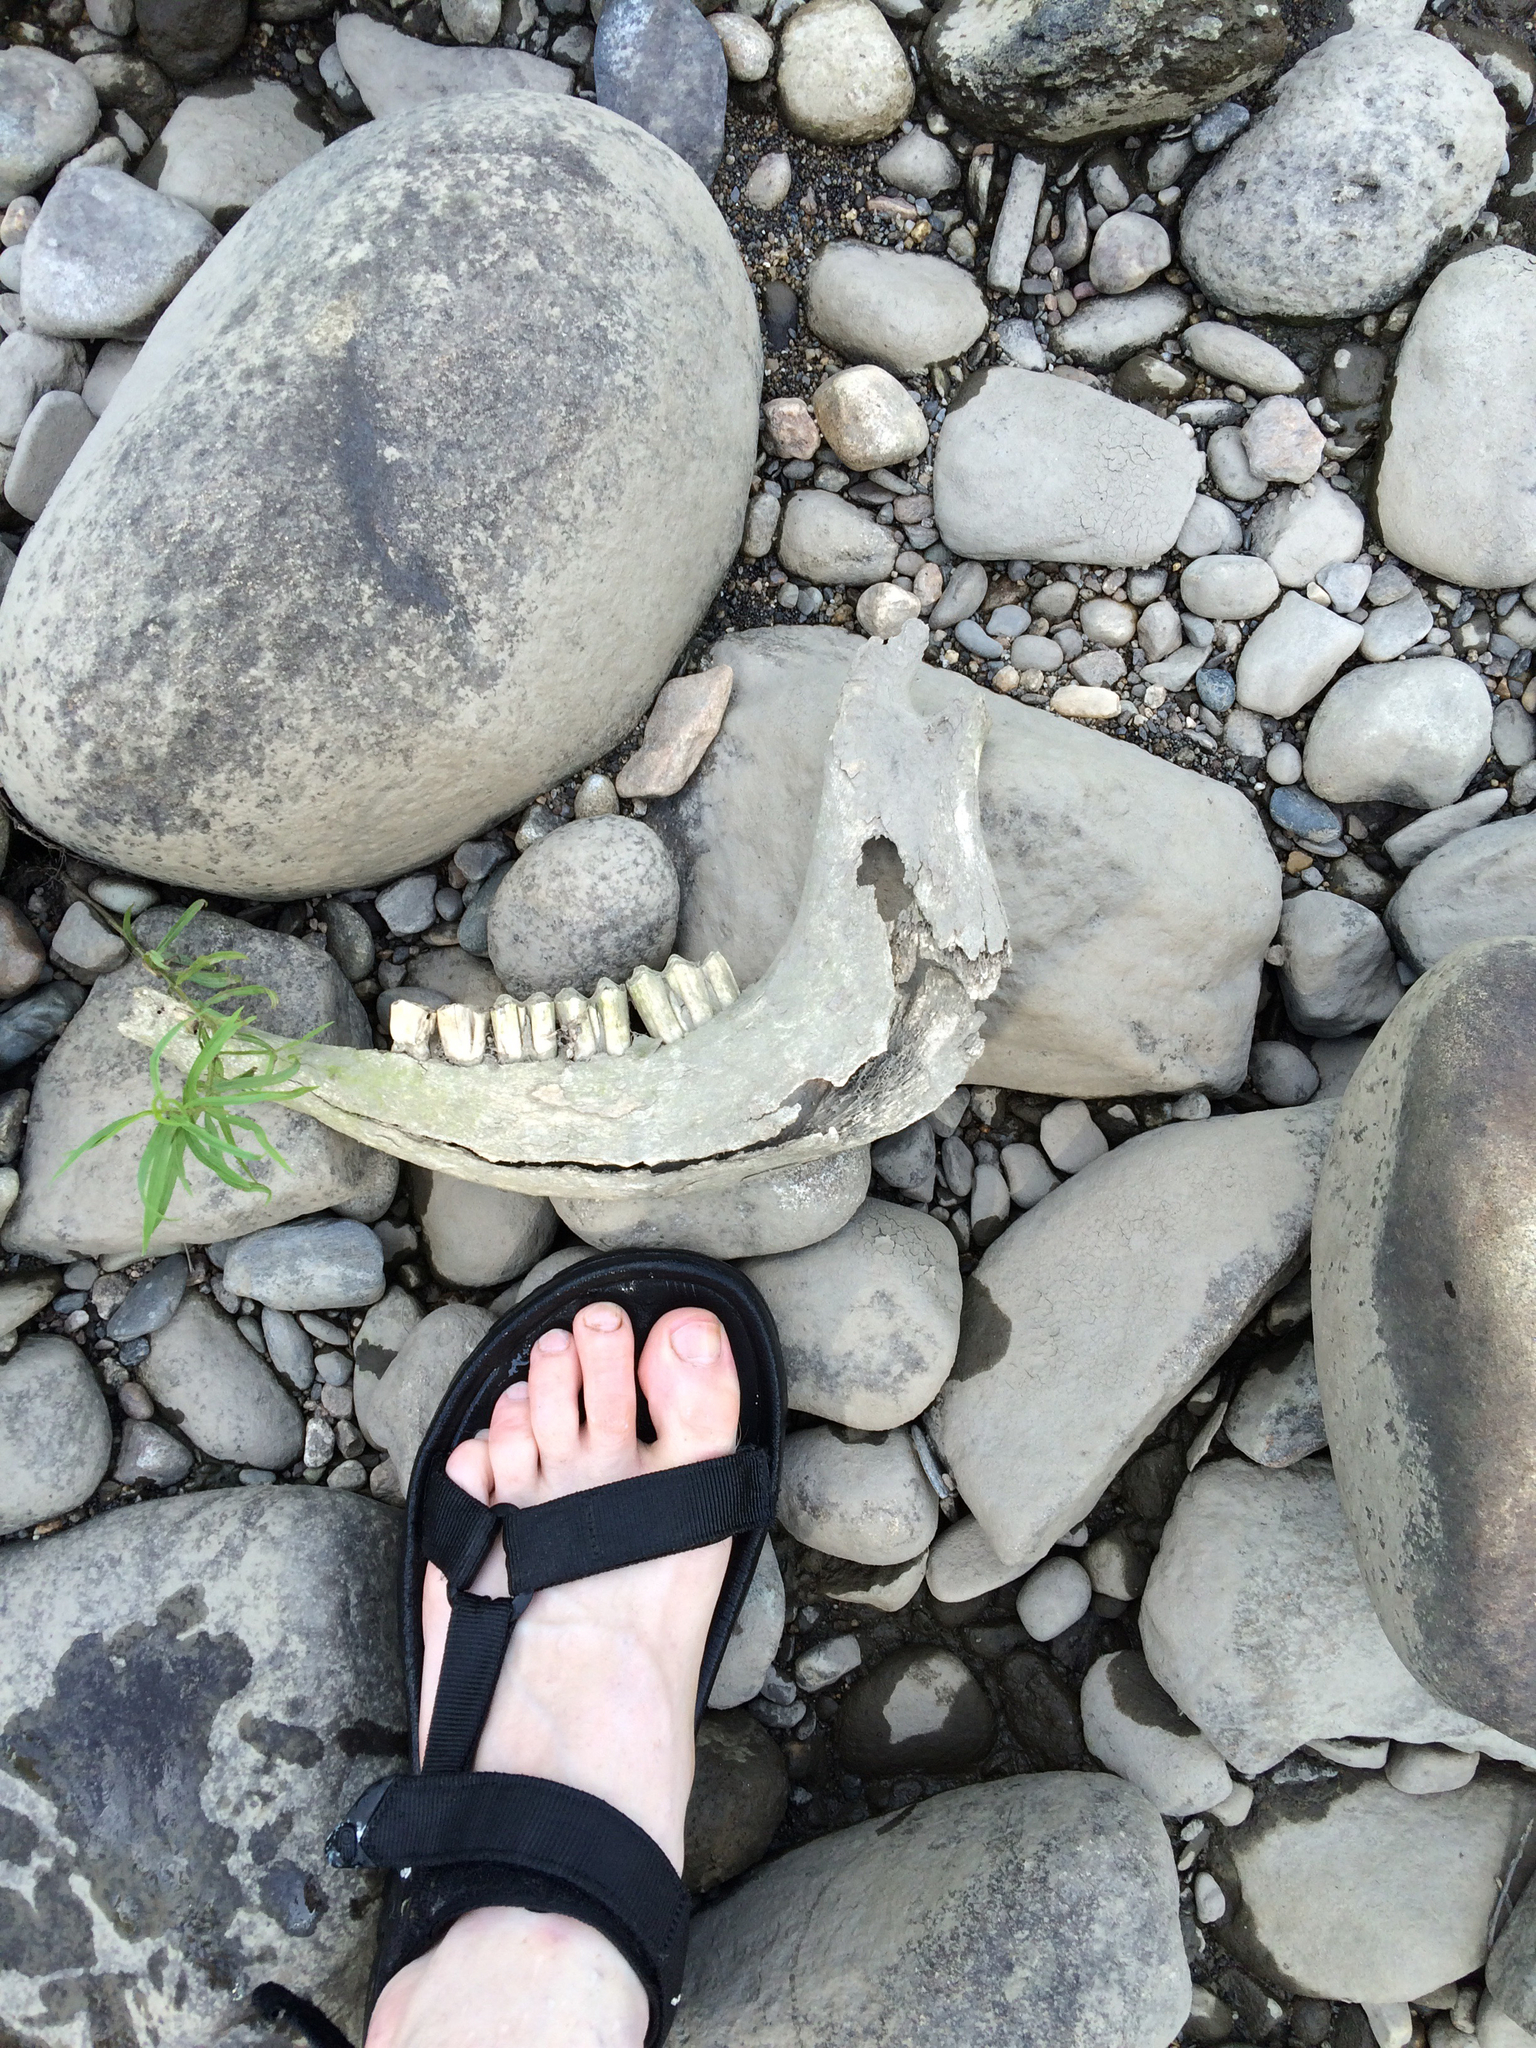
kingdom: Animalia
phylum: Chordata
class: Mammalia
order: Artiodactyla
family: Cervidae
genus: Alces
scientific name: Alces alces
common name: Moose
